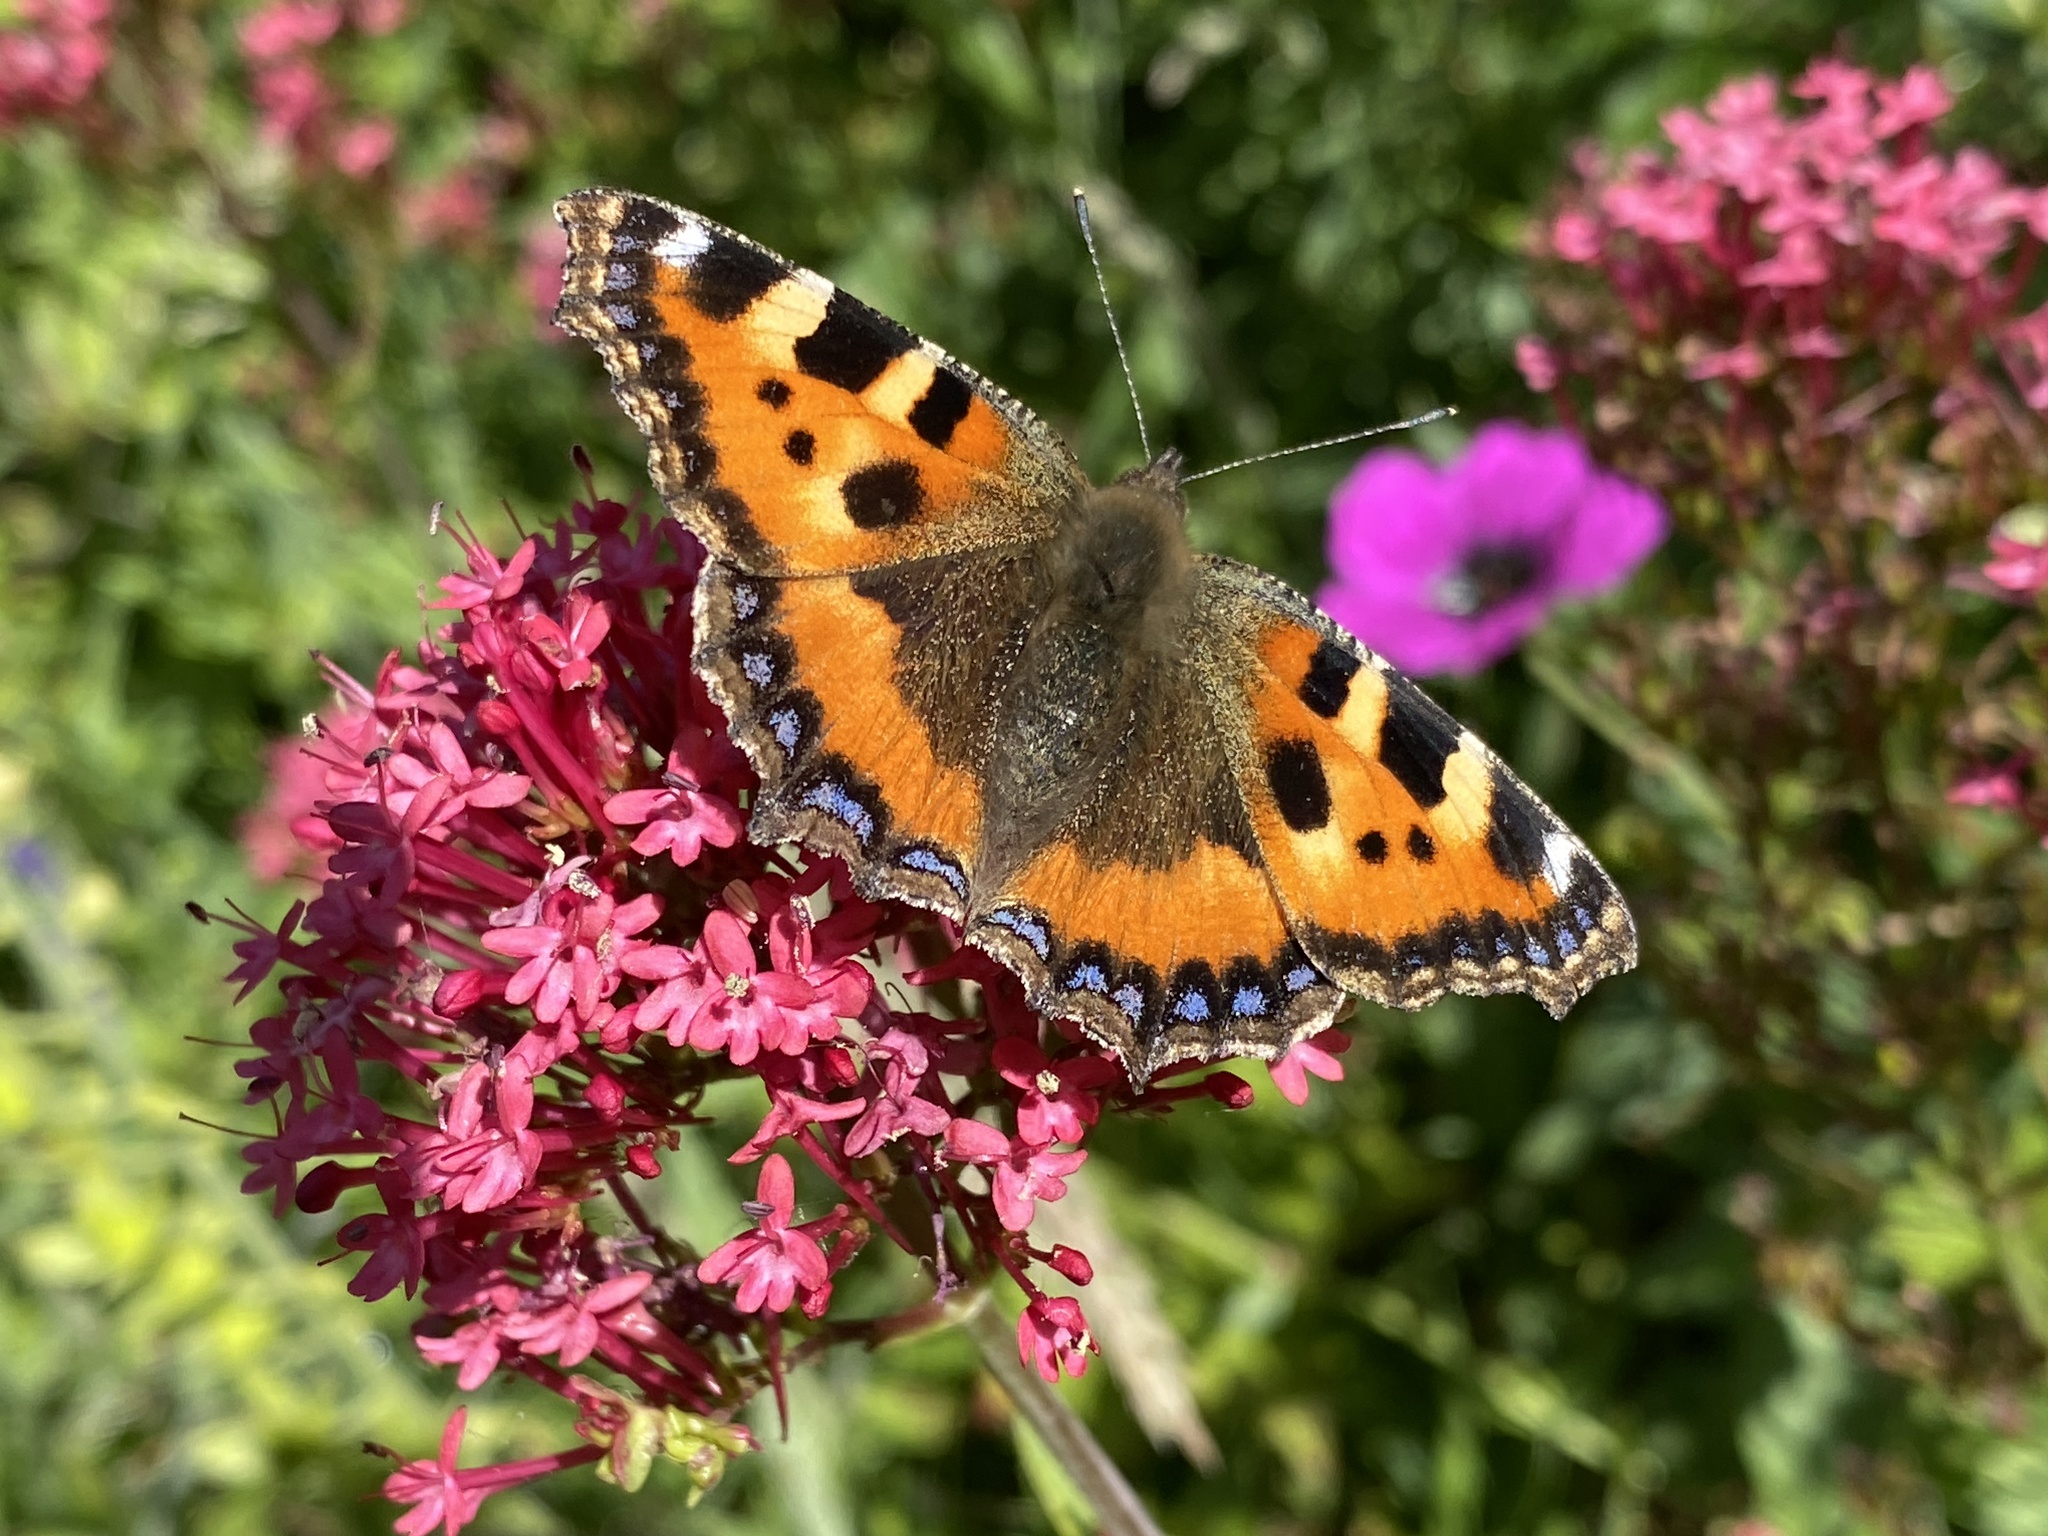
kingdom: Animalia
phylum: Arthropoda
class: Insecta
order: Lepidoptera
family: Nymphalidae
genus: Aglais
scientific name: Aglais urticae
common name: Small tortoiseshell
